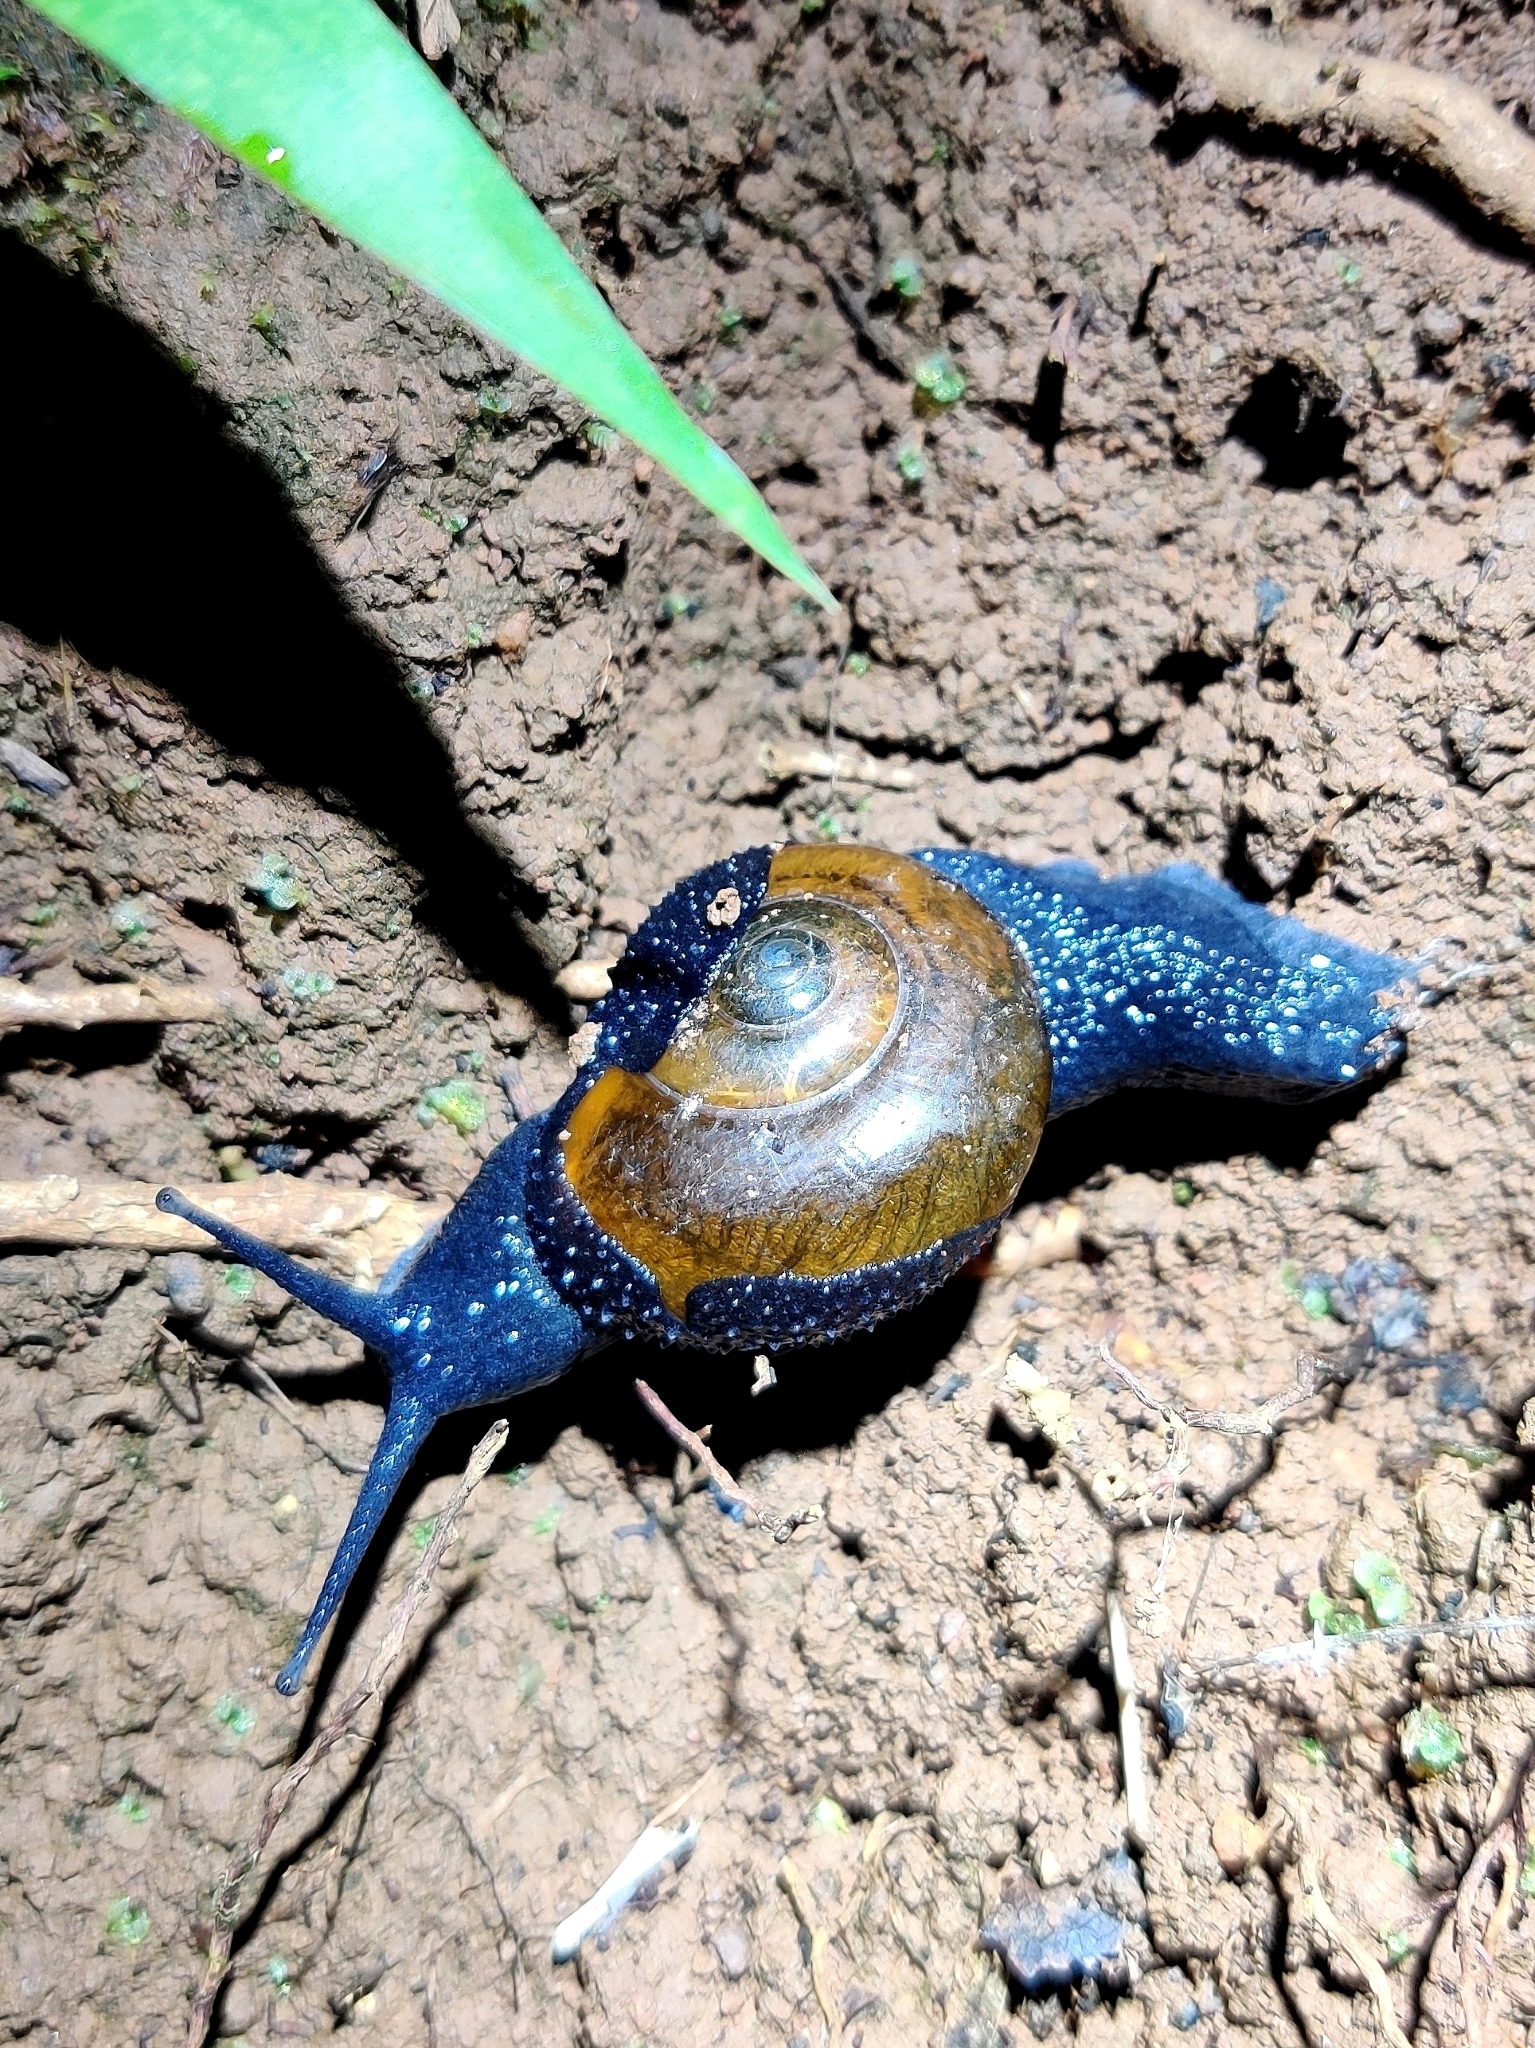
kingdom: Animalia
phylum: Mollusca
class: Gastropoda
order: Stylommatophora
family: Ariophantidae
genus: Varadia
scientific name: Varadia amboliensis
